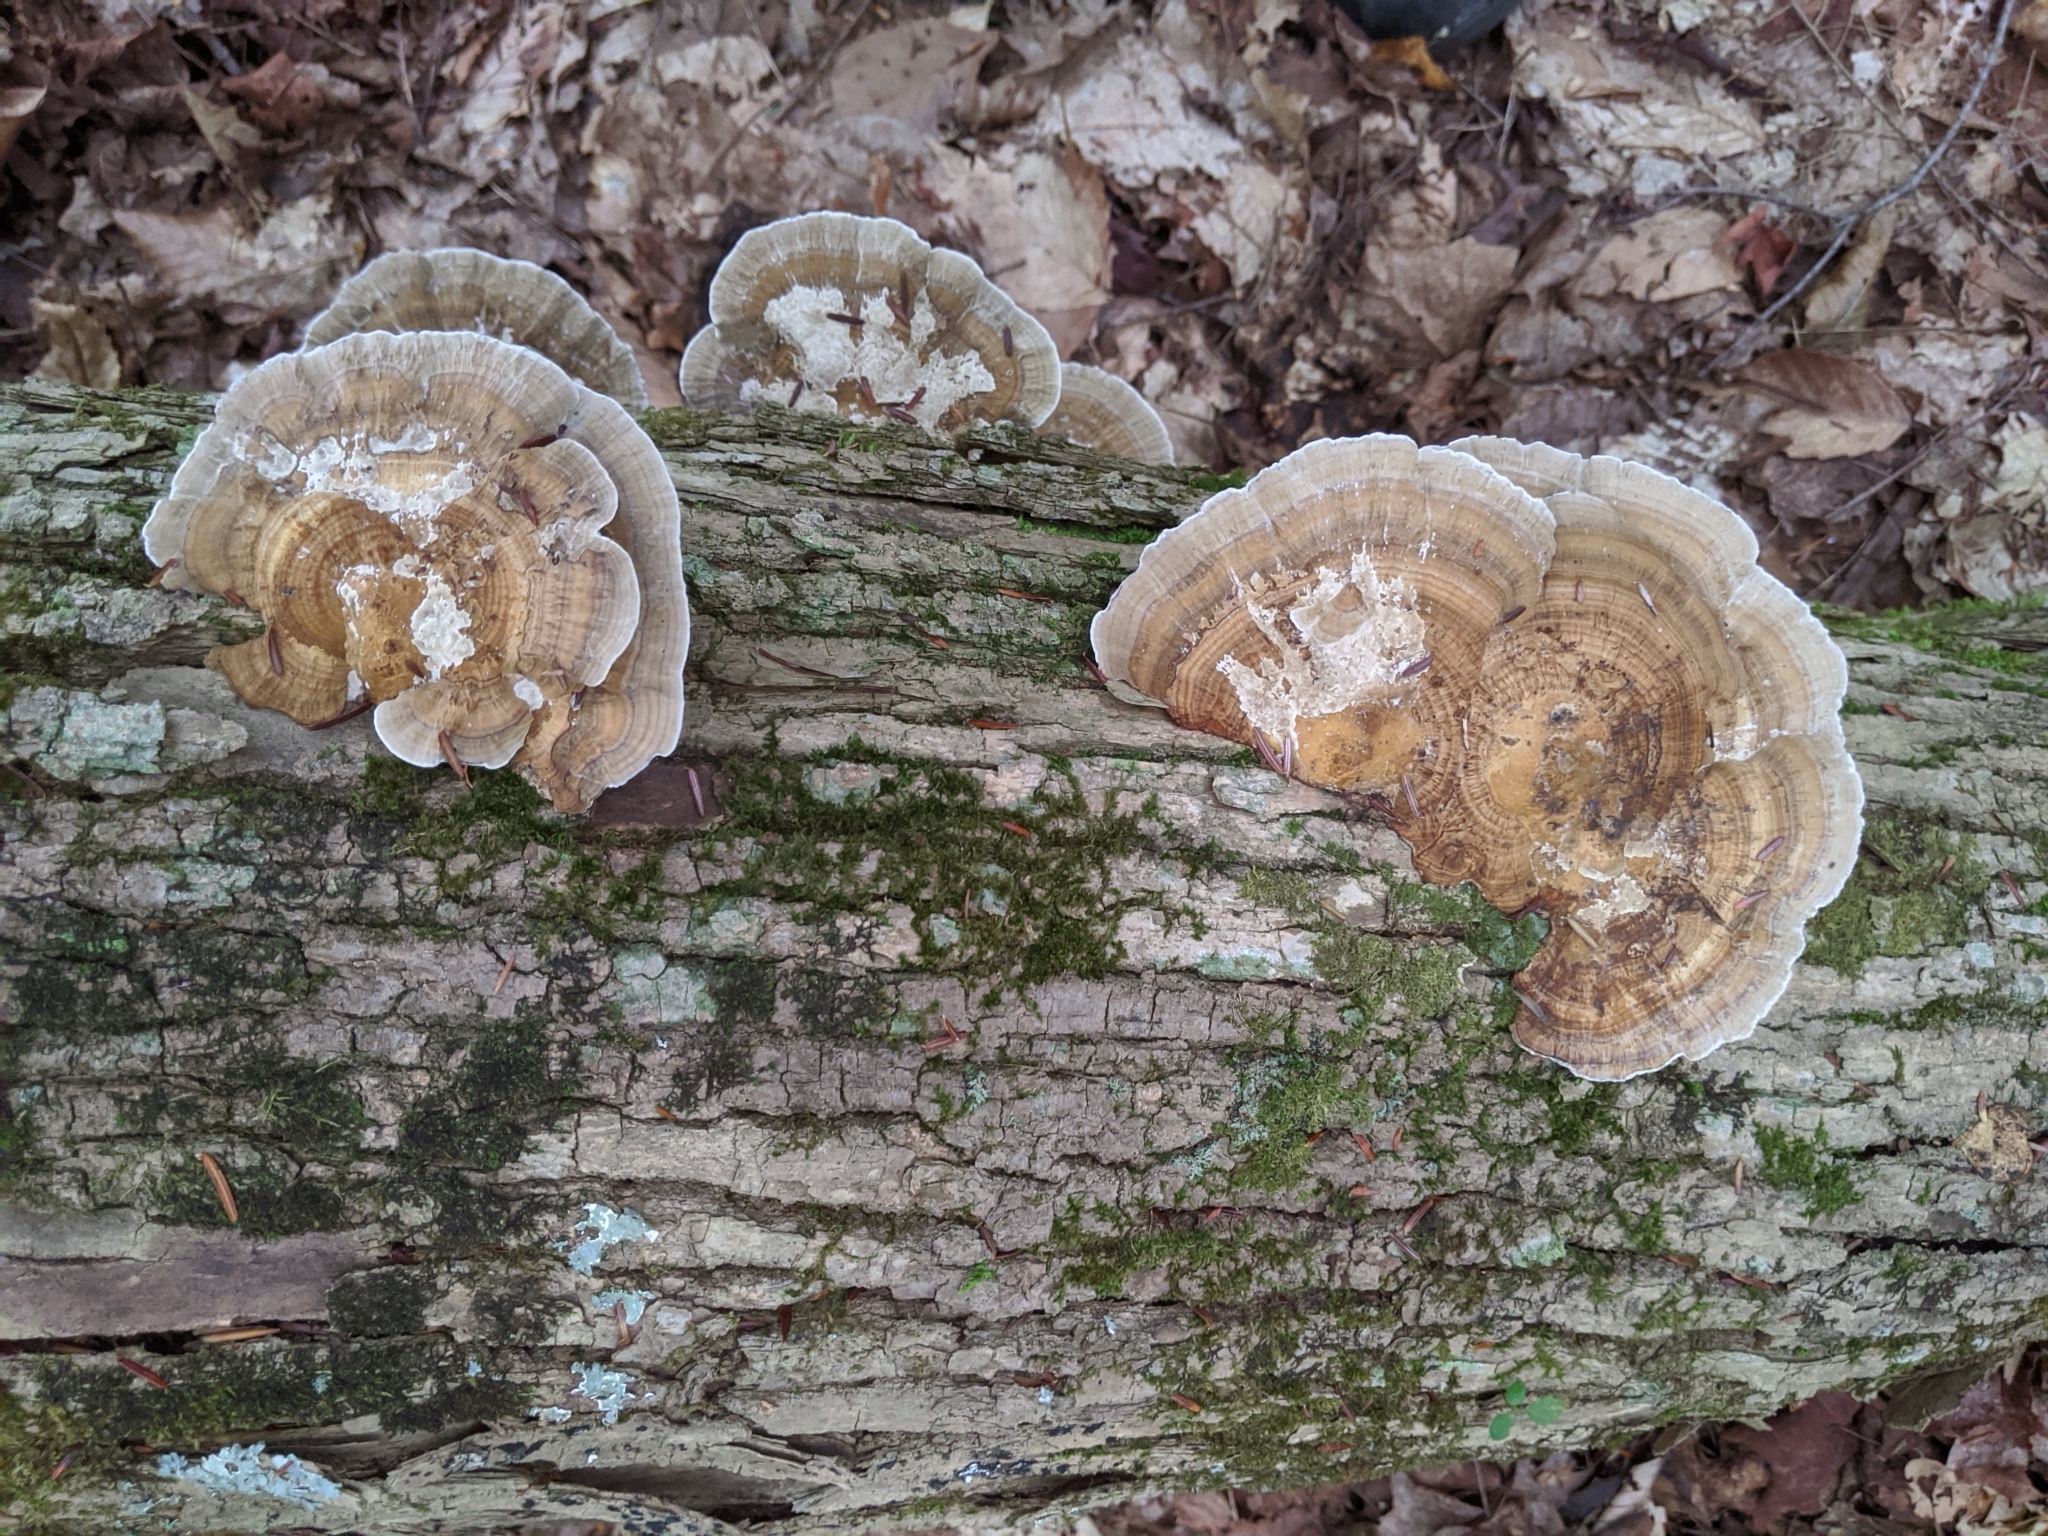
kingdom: Fungi
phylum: Basidiomycota
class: Agaricomycetes
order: Polyporales
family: Polyporaceae
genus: Daedaleopsis
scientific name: Daedaleopsis confragosa
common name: Blushing bracket
